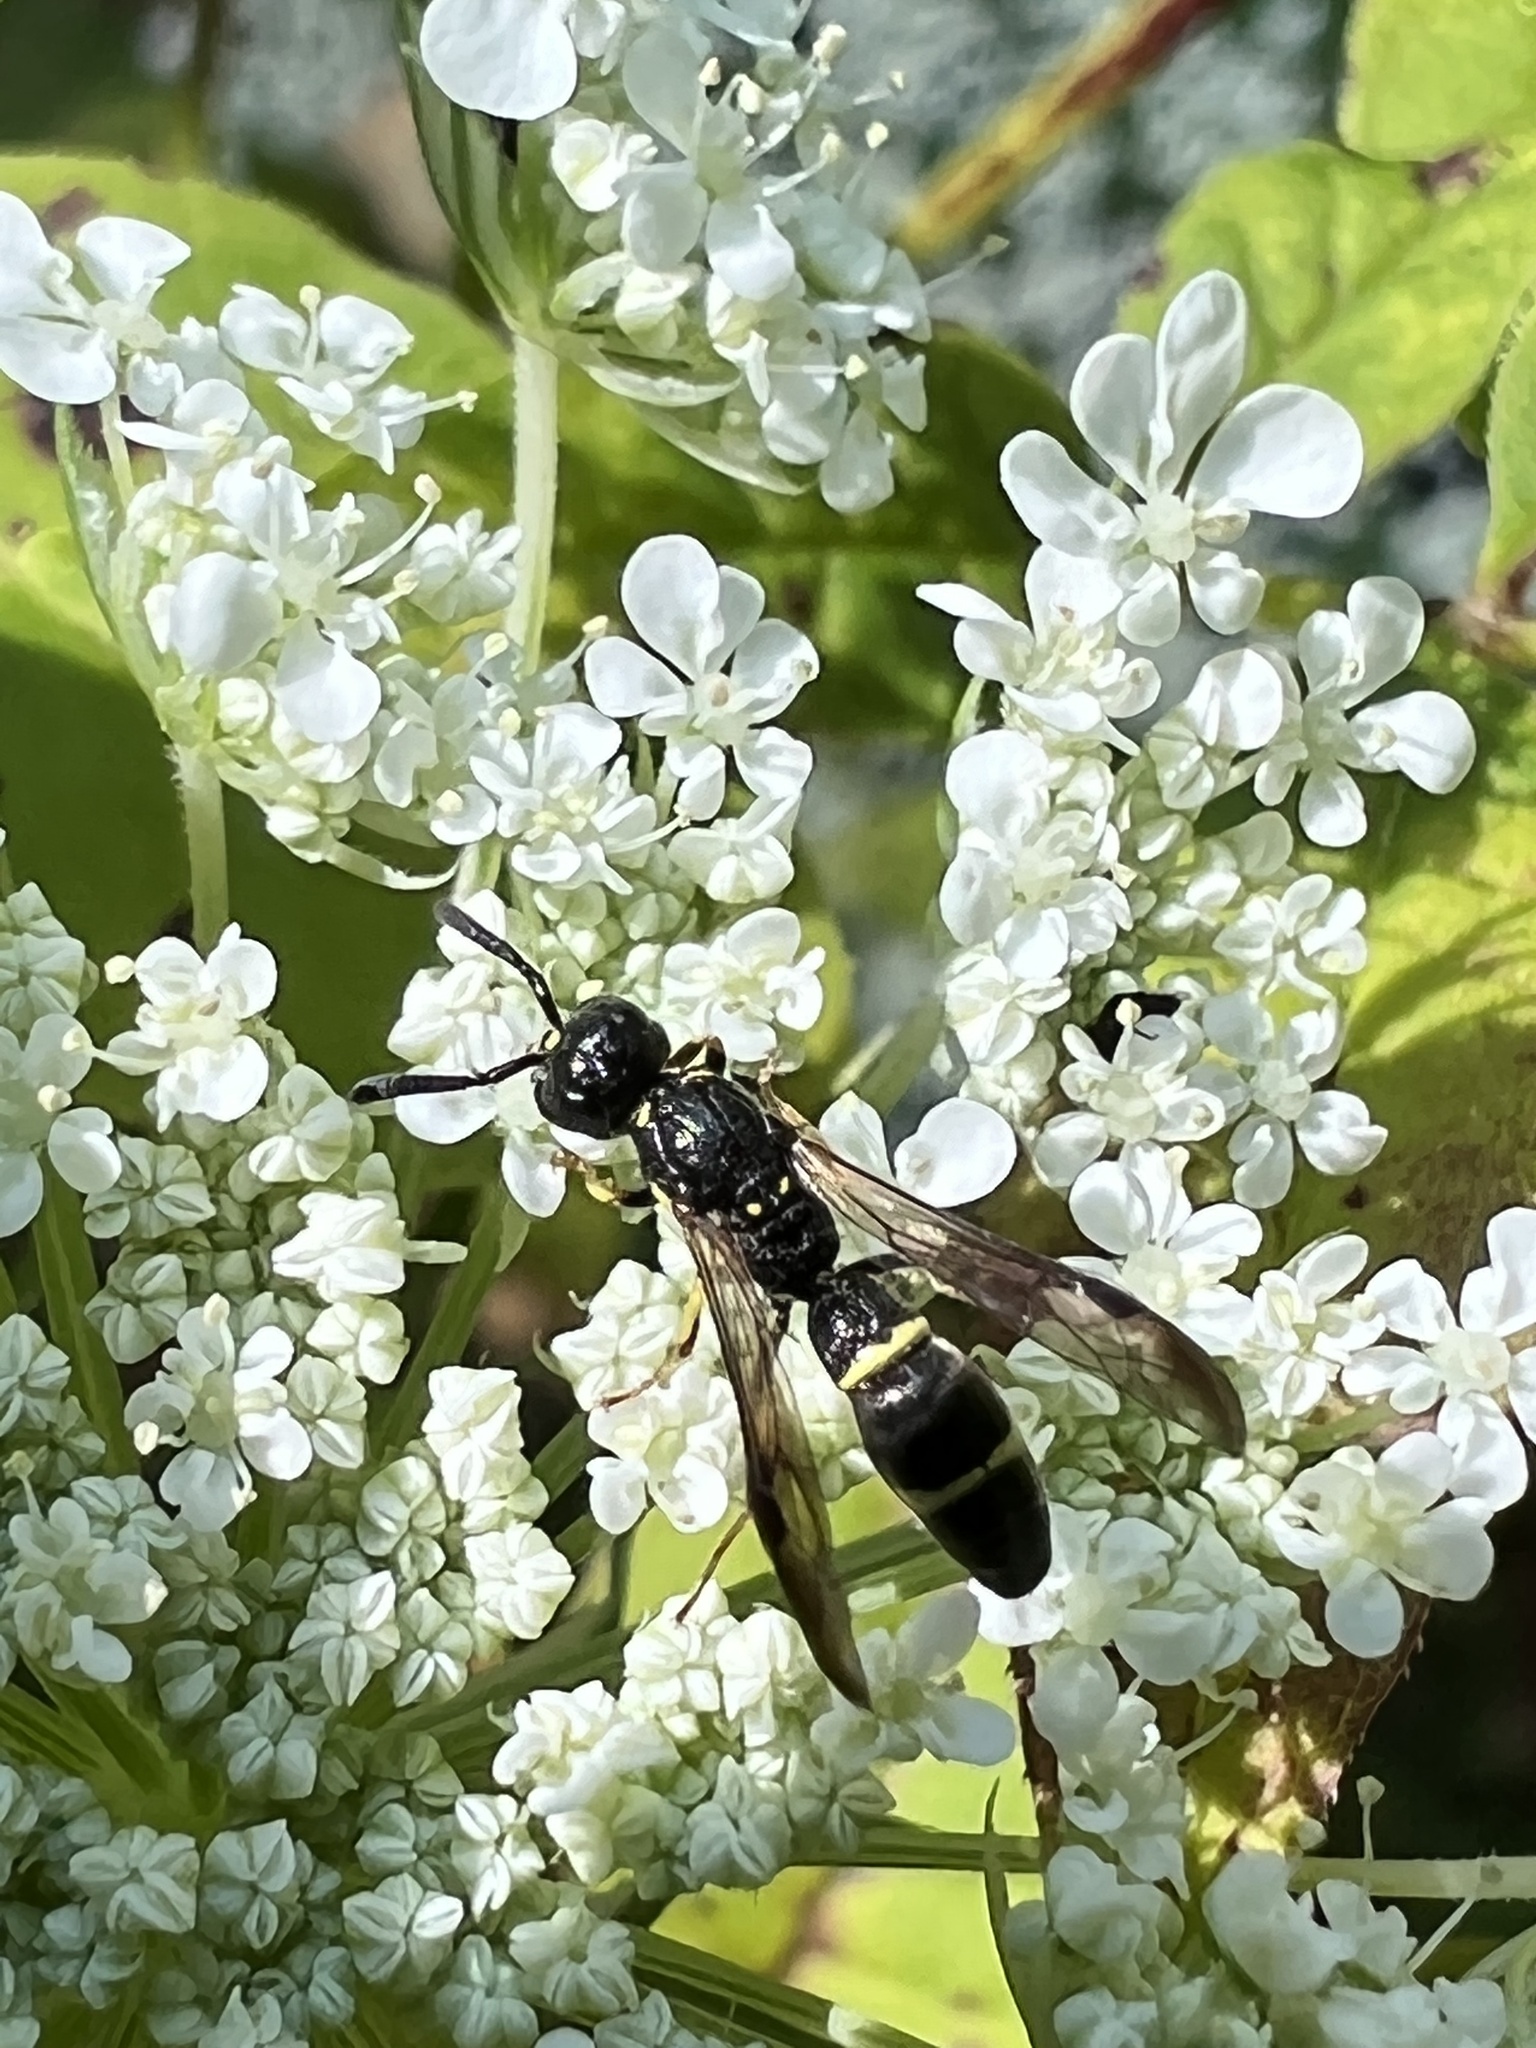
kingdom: Animalia
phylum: Arthropoda
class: Insecta
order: Hymenoptera
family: Eumenidae
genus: Symmorphus
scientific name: Symmorphus
